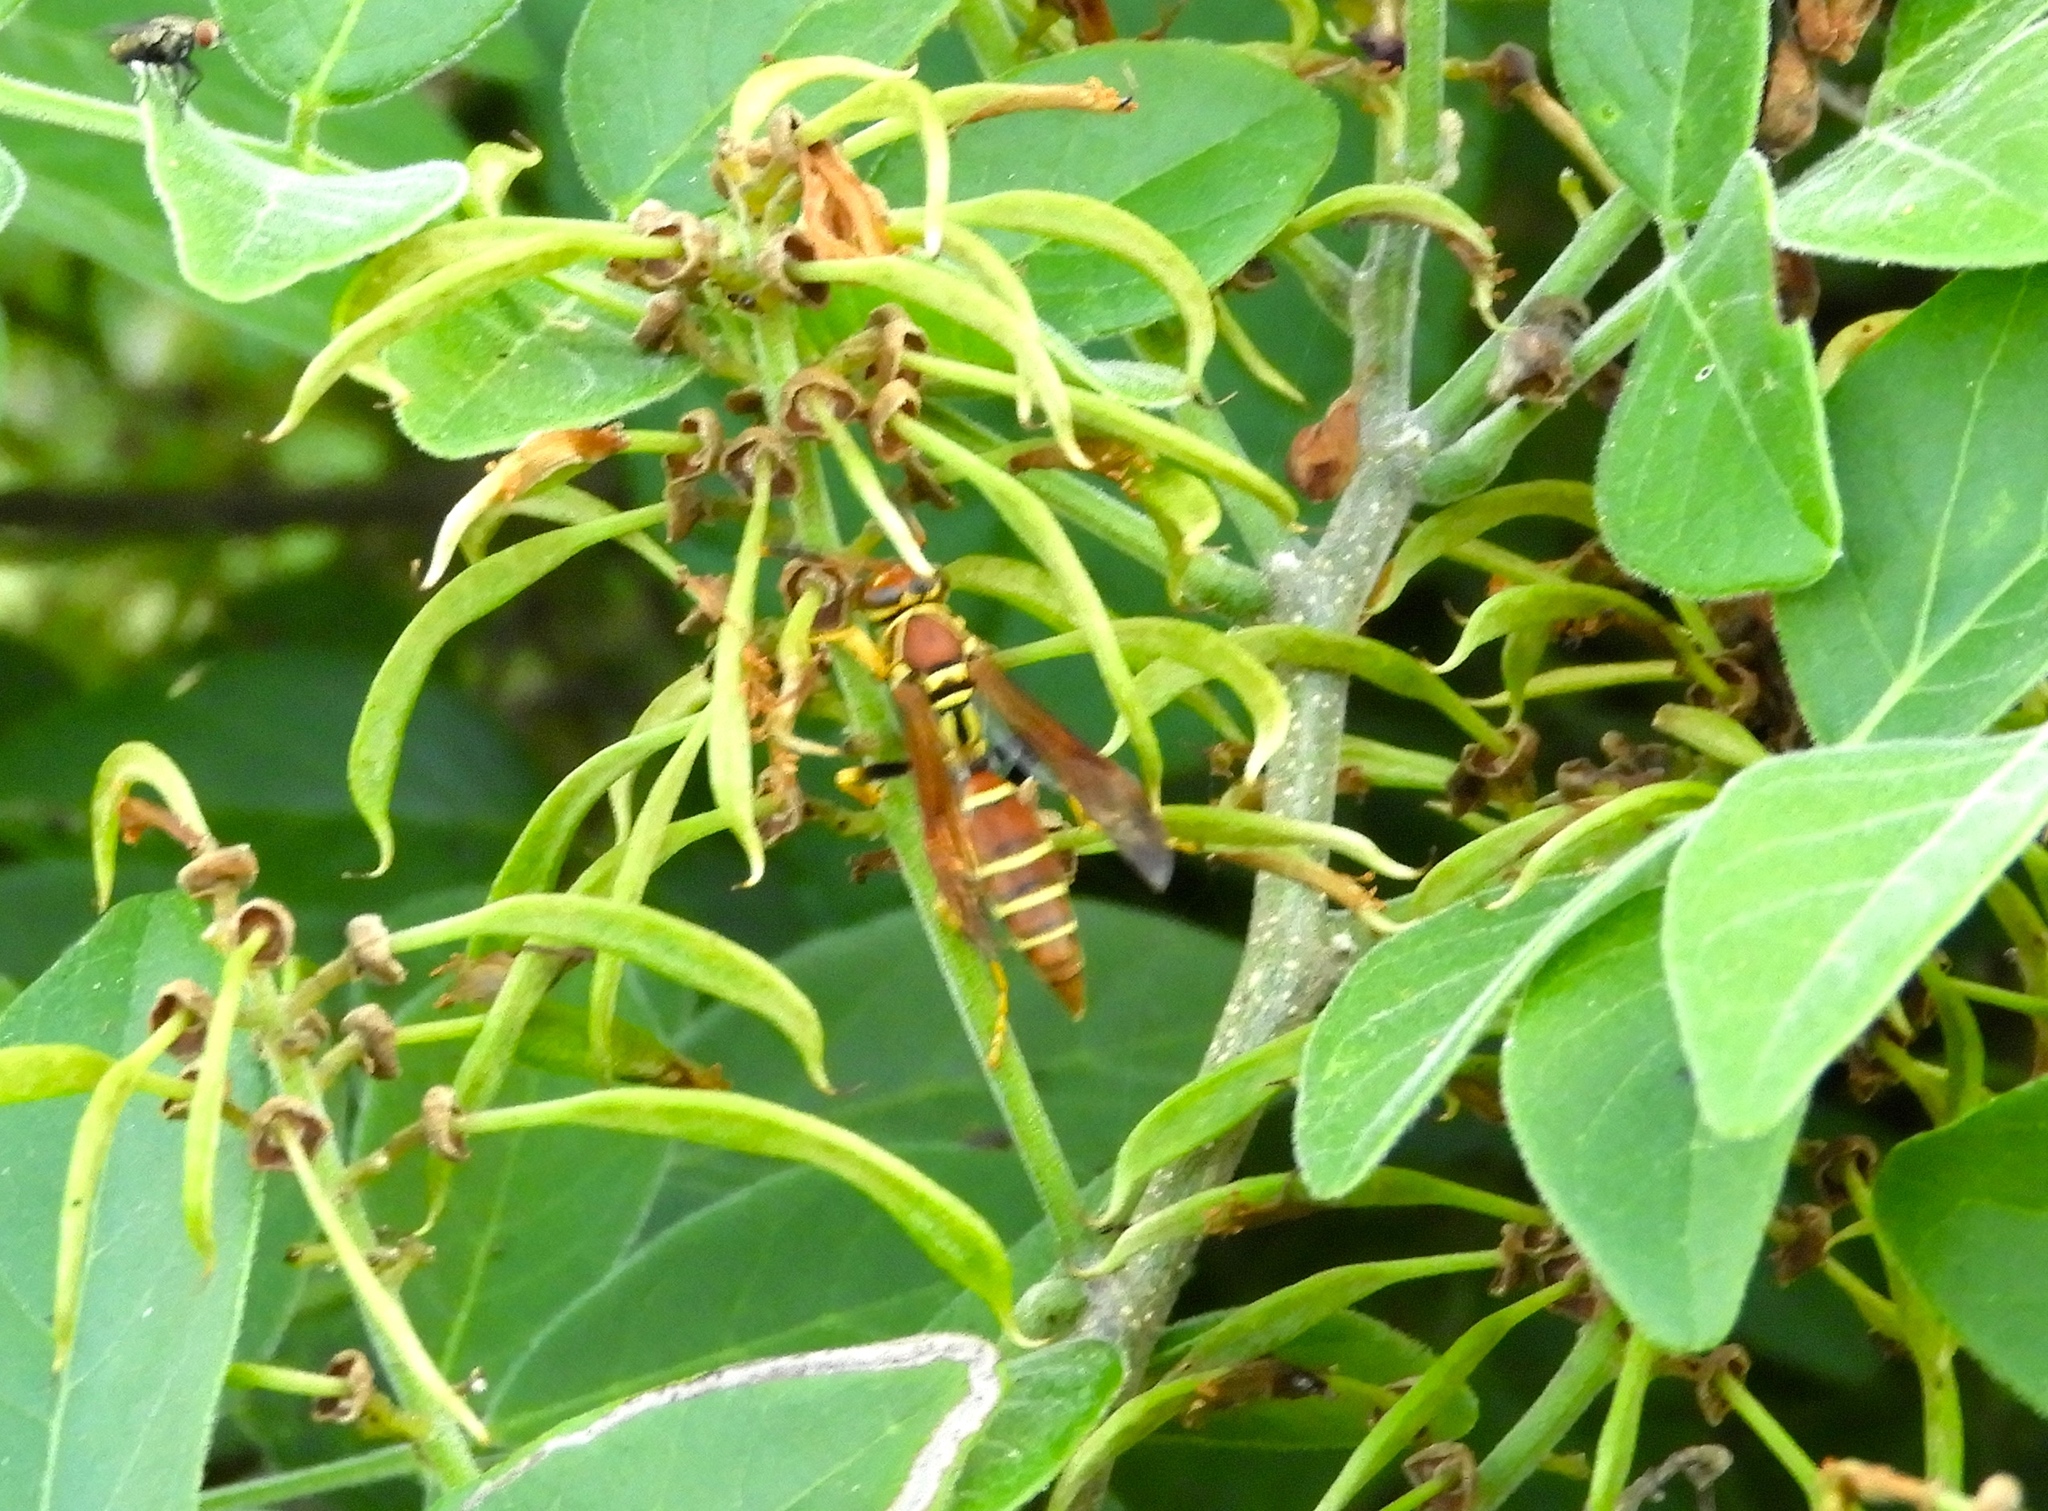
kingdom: Animalia
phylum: Arthropoda
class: Insecta
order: Hymenoptera
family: Eumenidae
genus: Polistes
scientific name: Polistes instabilis
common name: Unstable paper wasp
